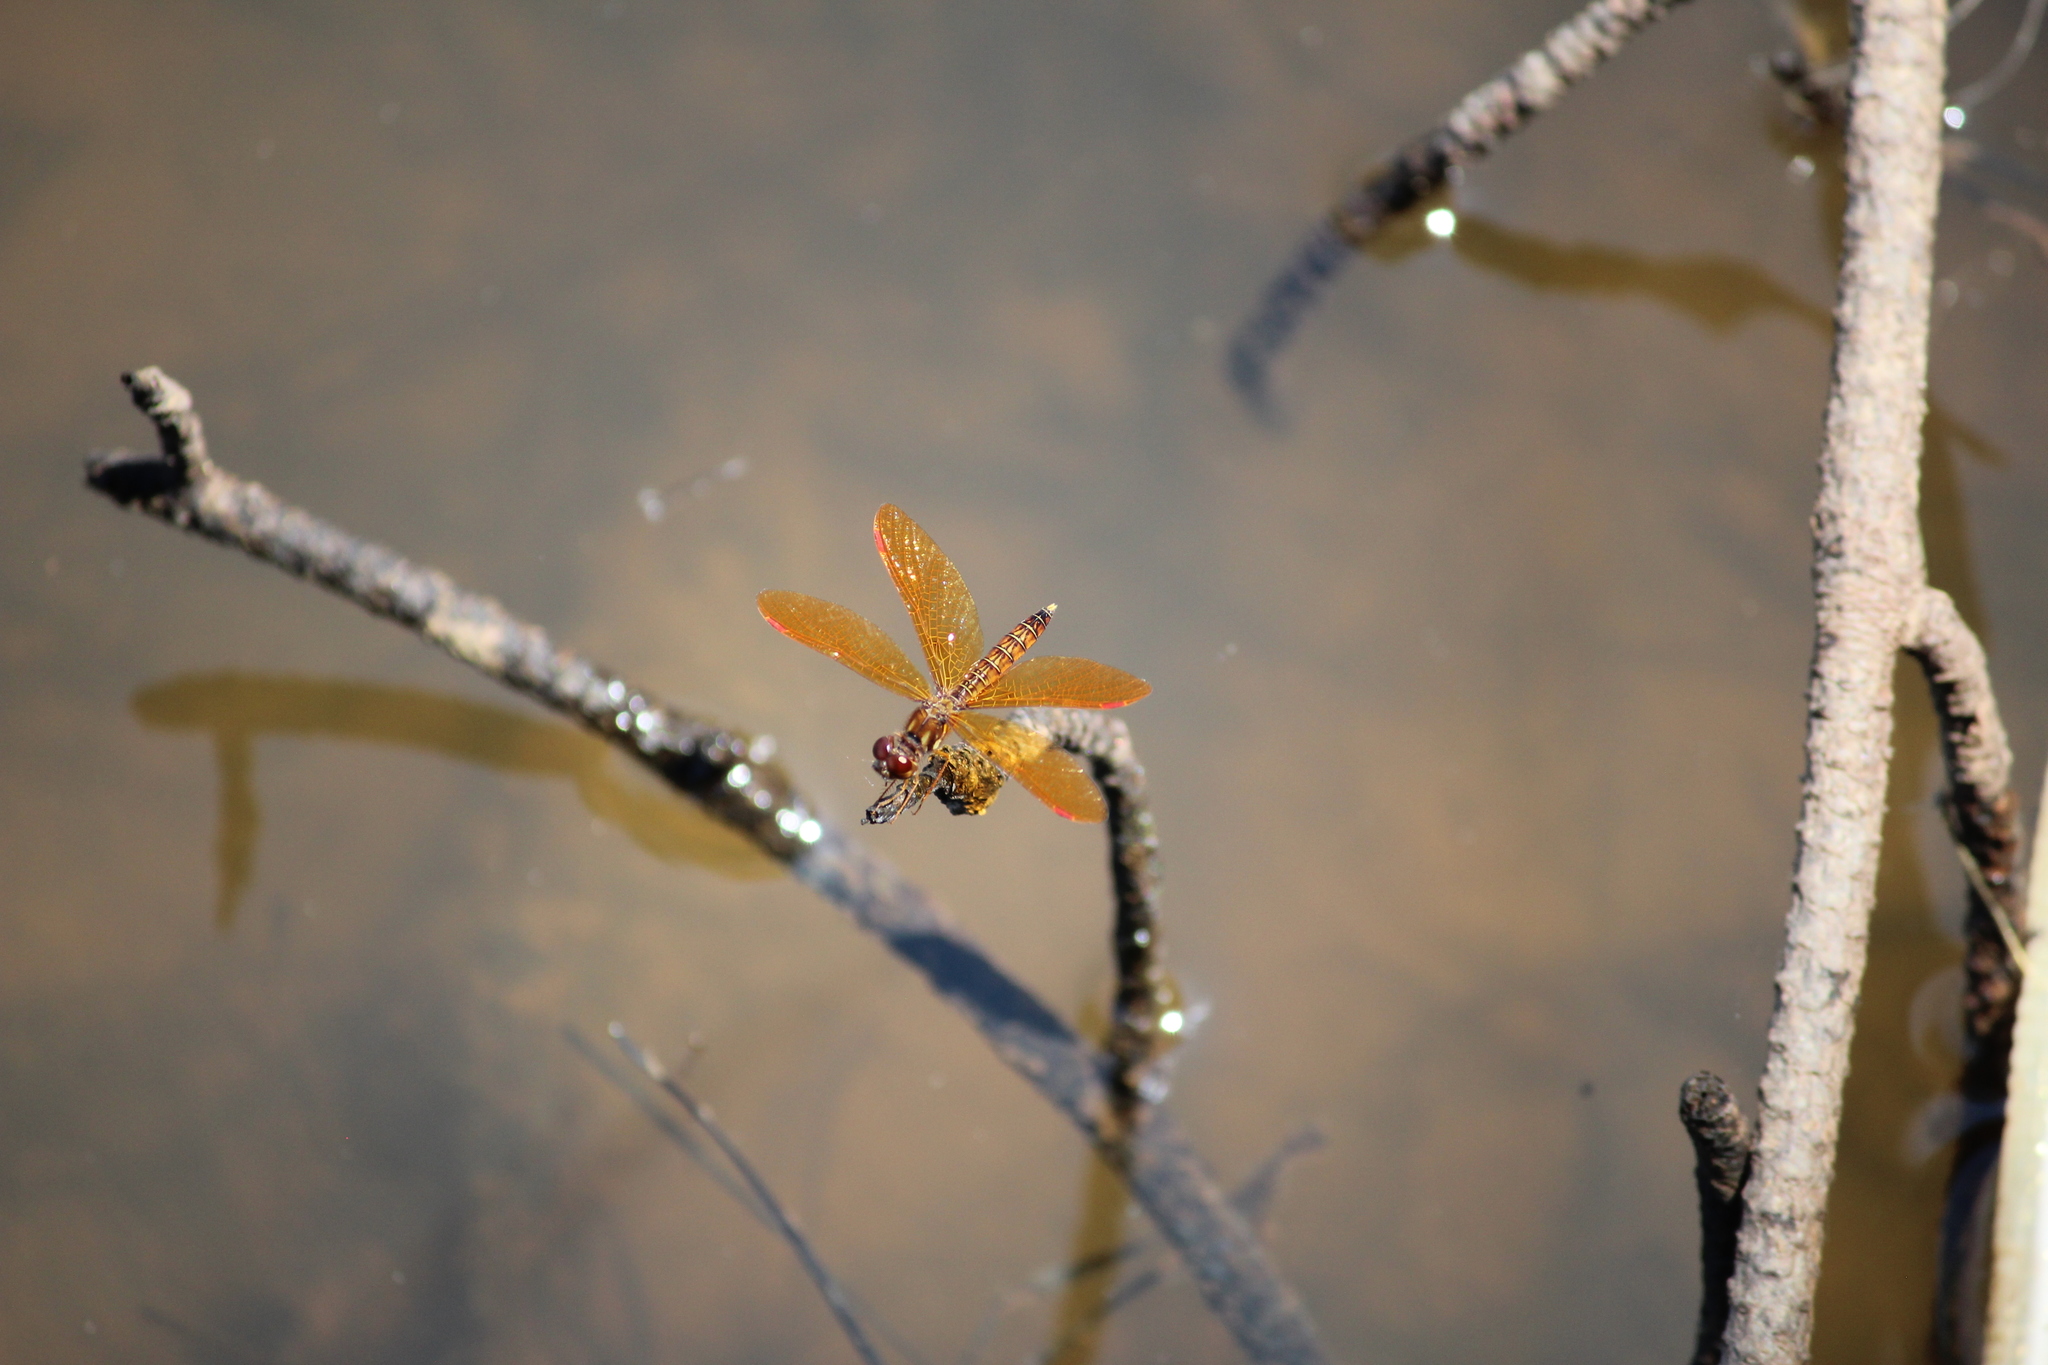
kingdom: Animalia
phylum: Arthropoda
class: Insecta
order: Odonata
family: Libellulidae
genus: Perithemis
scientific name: Perithemis tenera
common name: Eastern amberwing
